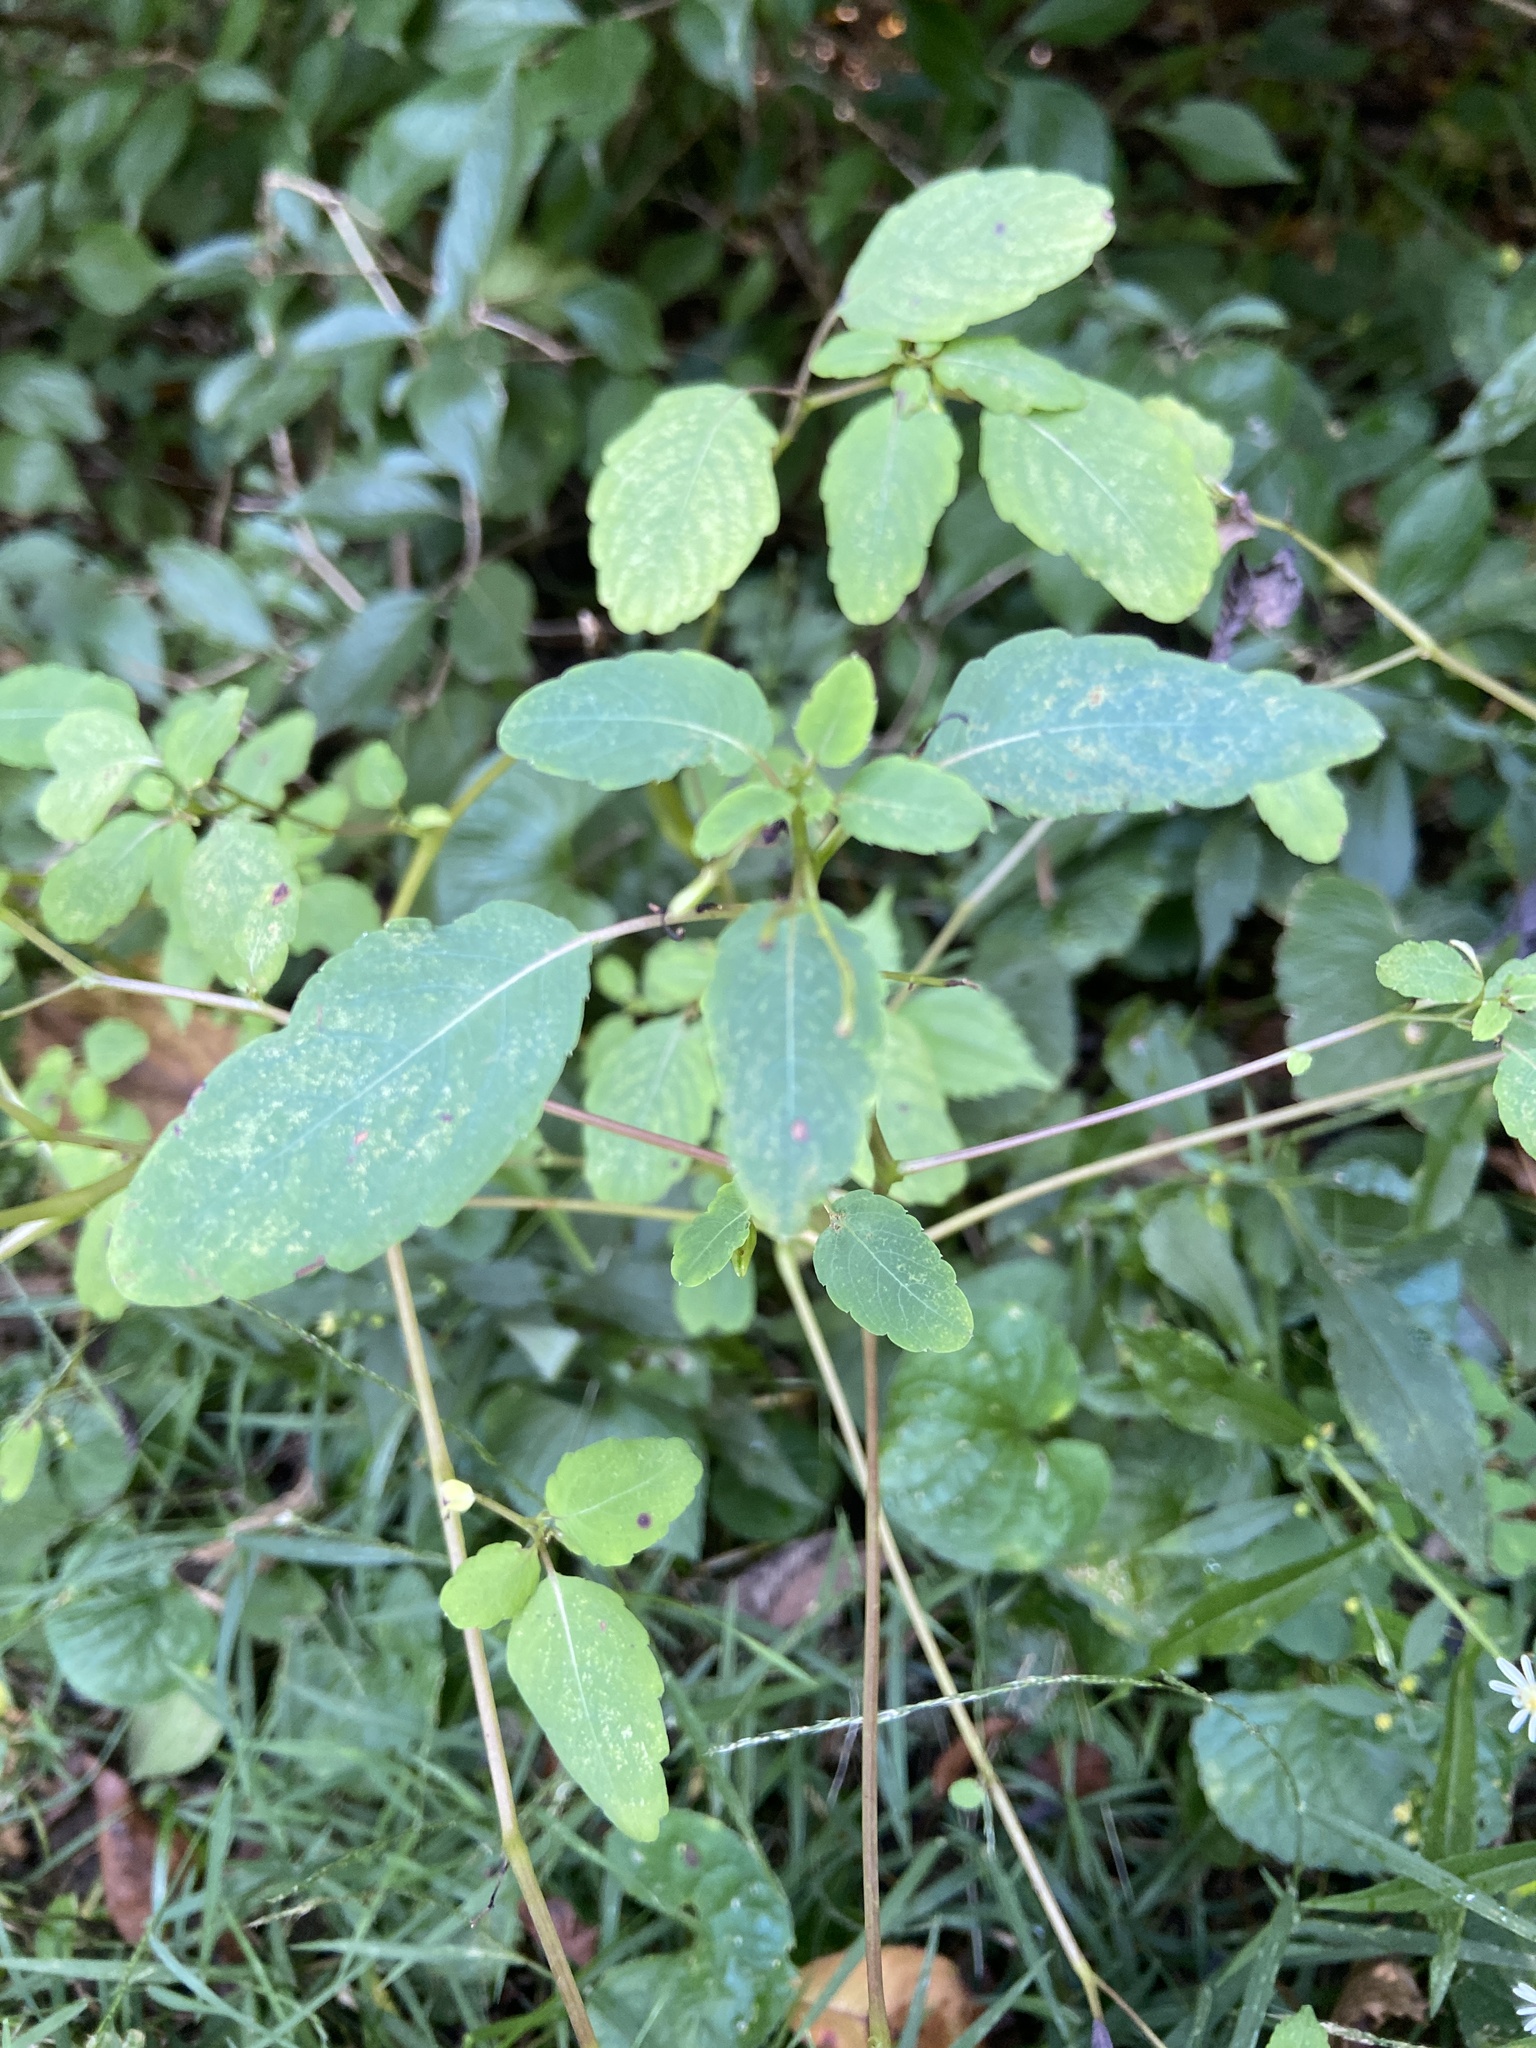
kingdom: Plantae
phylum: Tracheophyta
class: Magnoliopsida
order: Ericales
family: Balsaminaceae
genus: Impatiens
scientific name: Impatiens capensis
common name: Orange balsam
